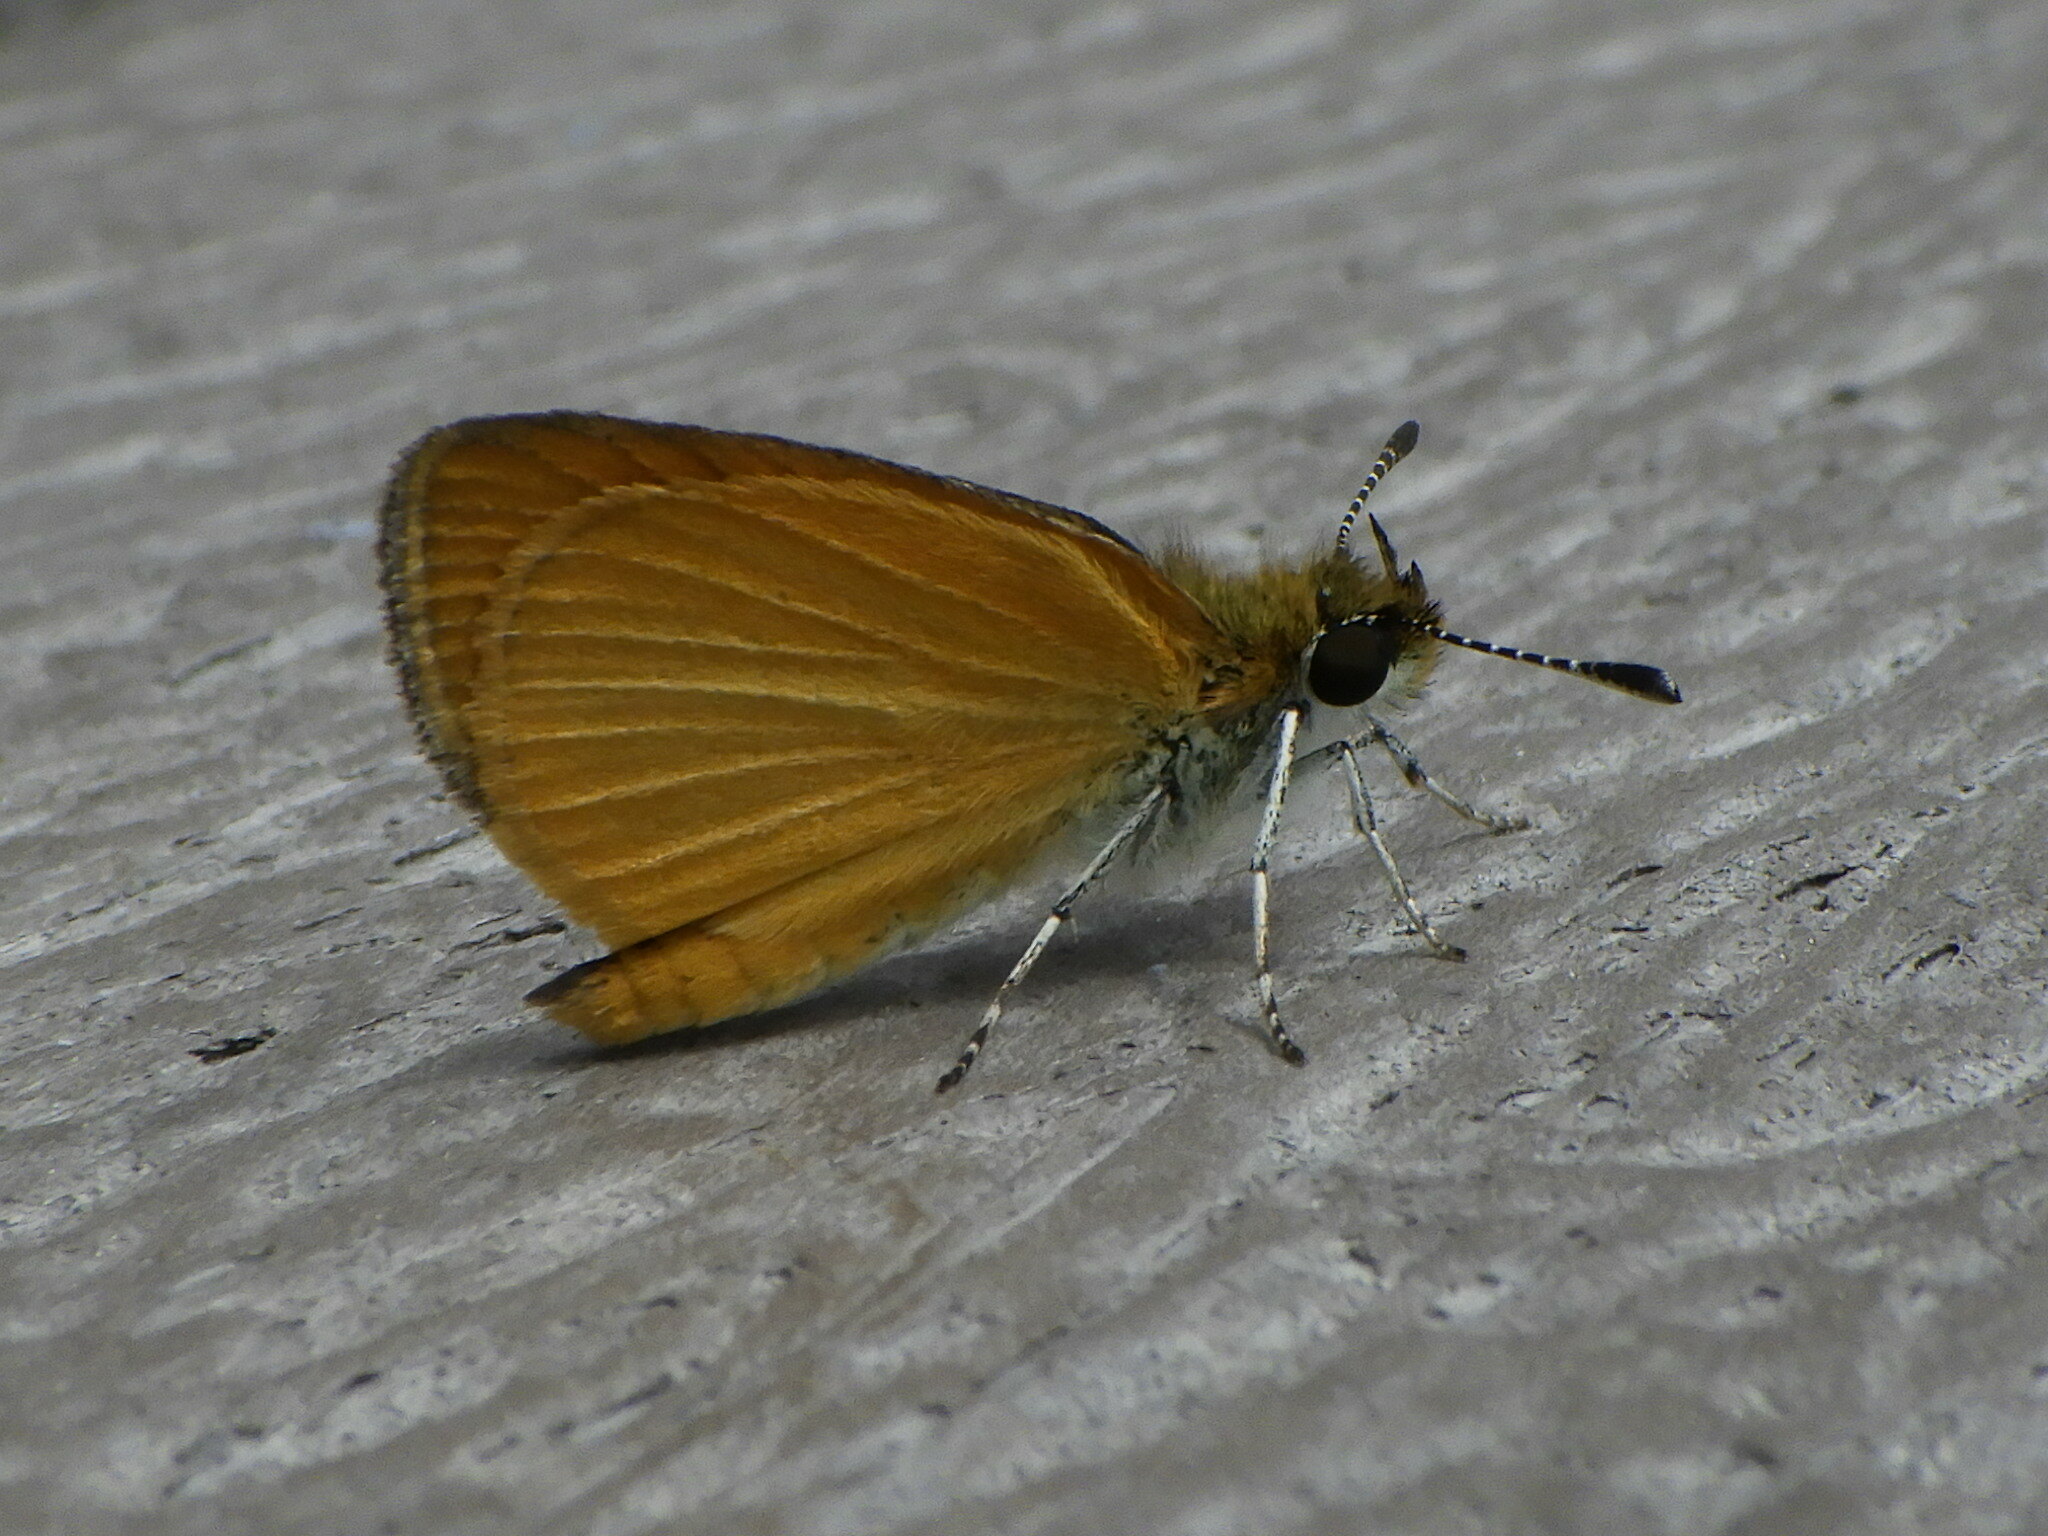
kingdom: Animalia
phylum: Arthropoda
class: Insecta
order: Lepidoptera
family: Hesperiidae
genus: Ancyloxypha
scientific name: Ancyloxypha numitor
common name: Least skipper
